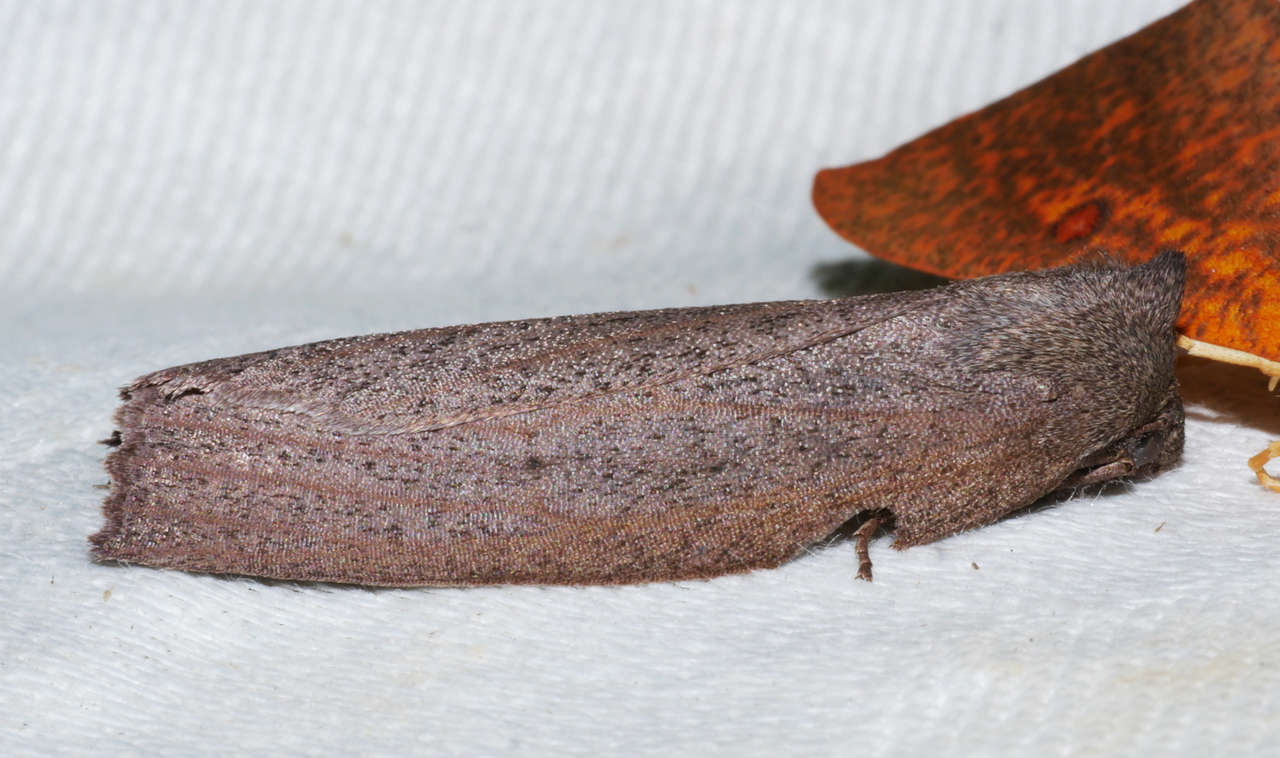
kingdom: Animalia
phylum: Arthropoda
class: Insecta
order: Lepidoptera
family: Geometridae
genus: Paralaea
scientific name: Paralaea porphyrinaria
